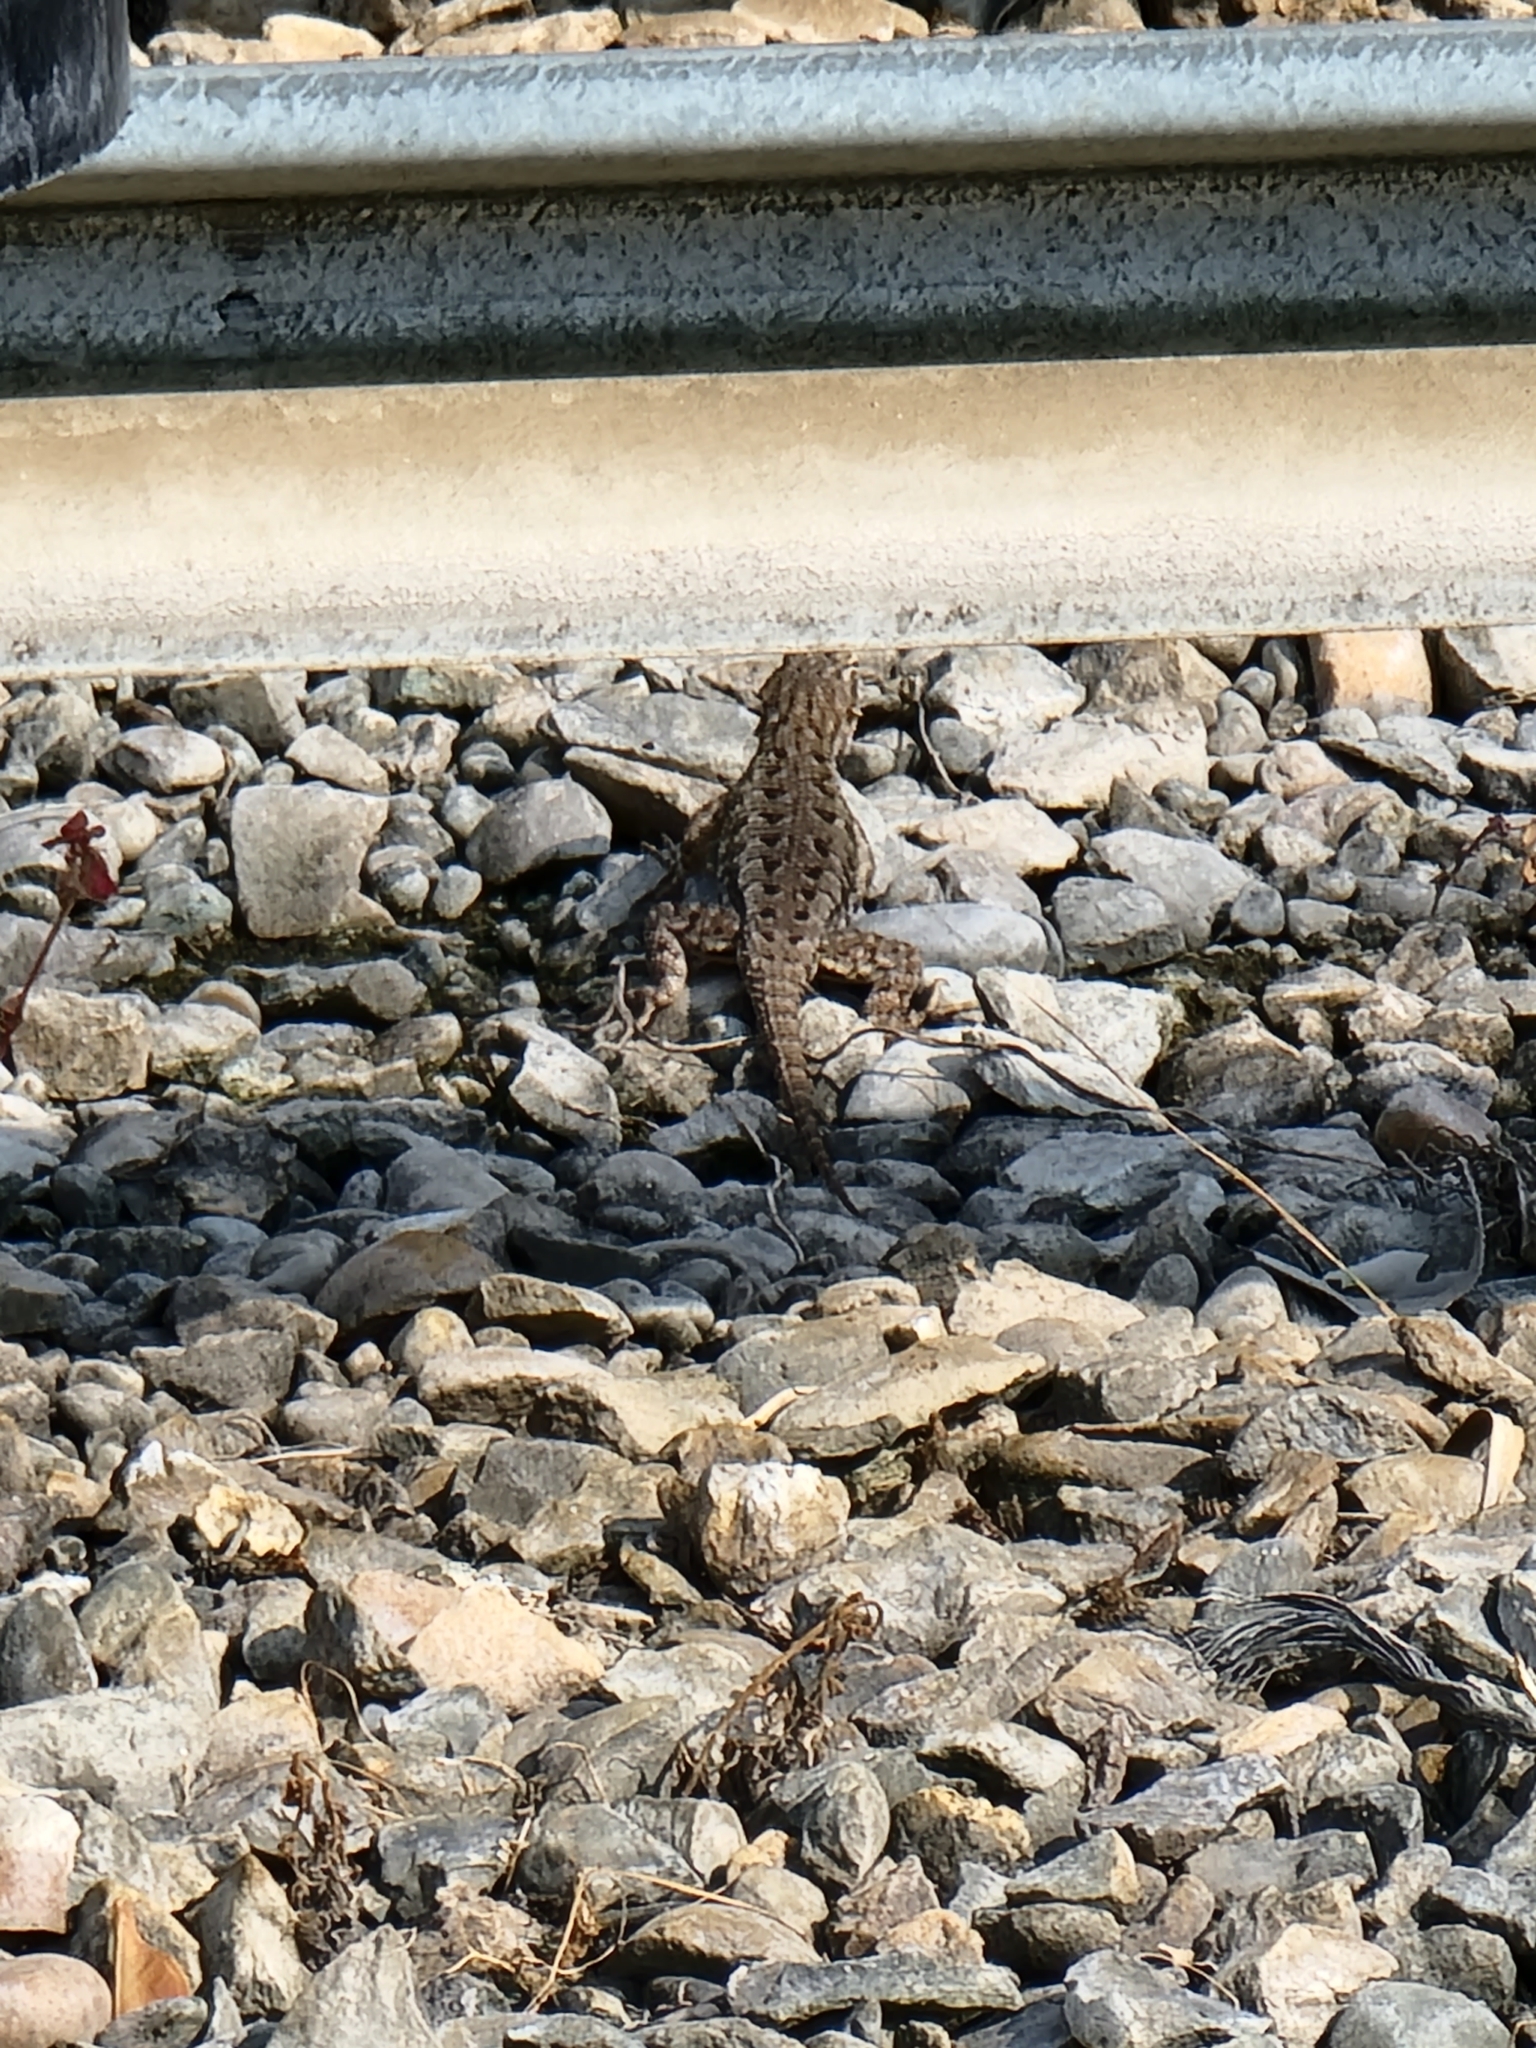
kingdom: Animalia
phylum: Chordata
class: Squamata
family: Phrynosomatidae
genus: Sceloporus
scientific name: Sceloporus occidentalis
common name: Western fence lizard
